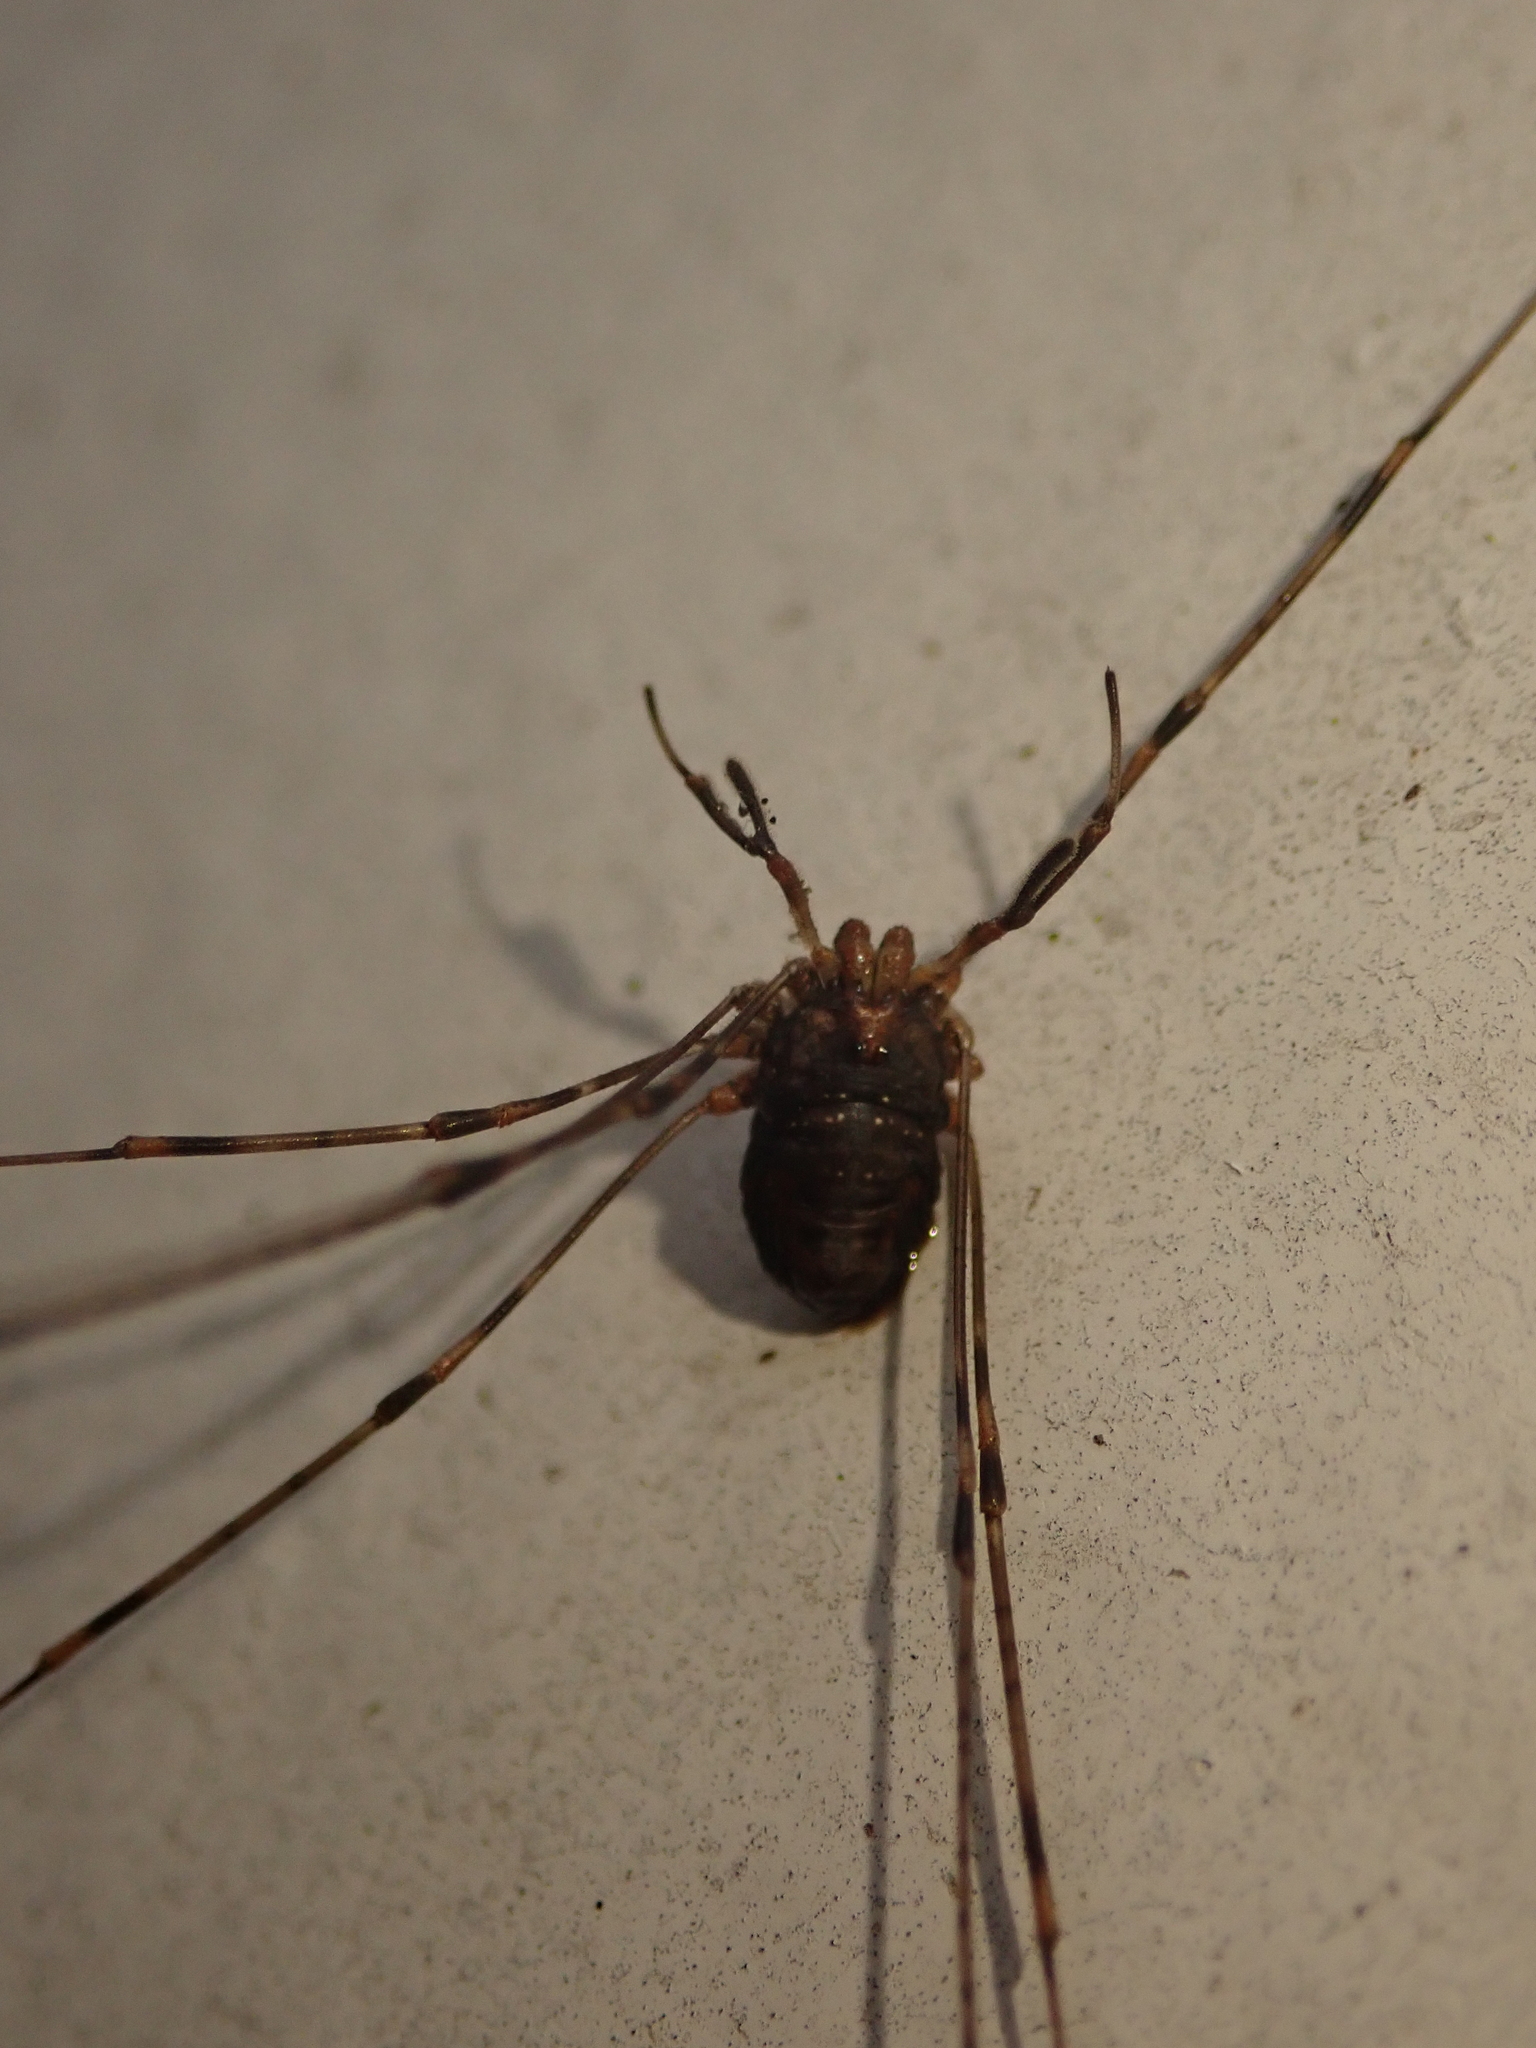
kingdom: Animalia
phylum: Arthropoda
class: Arachnida
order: Opiliones
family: Phalangiidae
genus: Dicranopalpus
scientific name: Dicranopalpus ramosus
